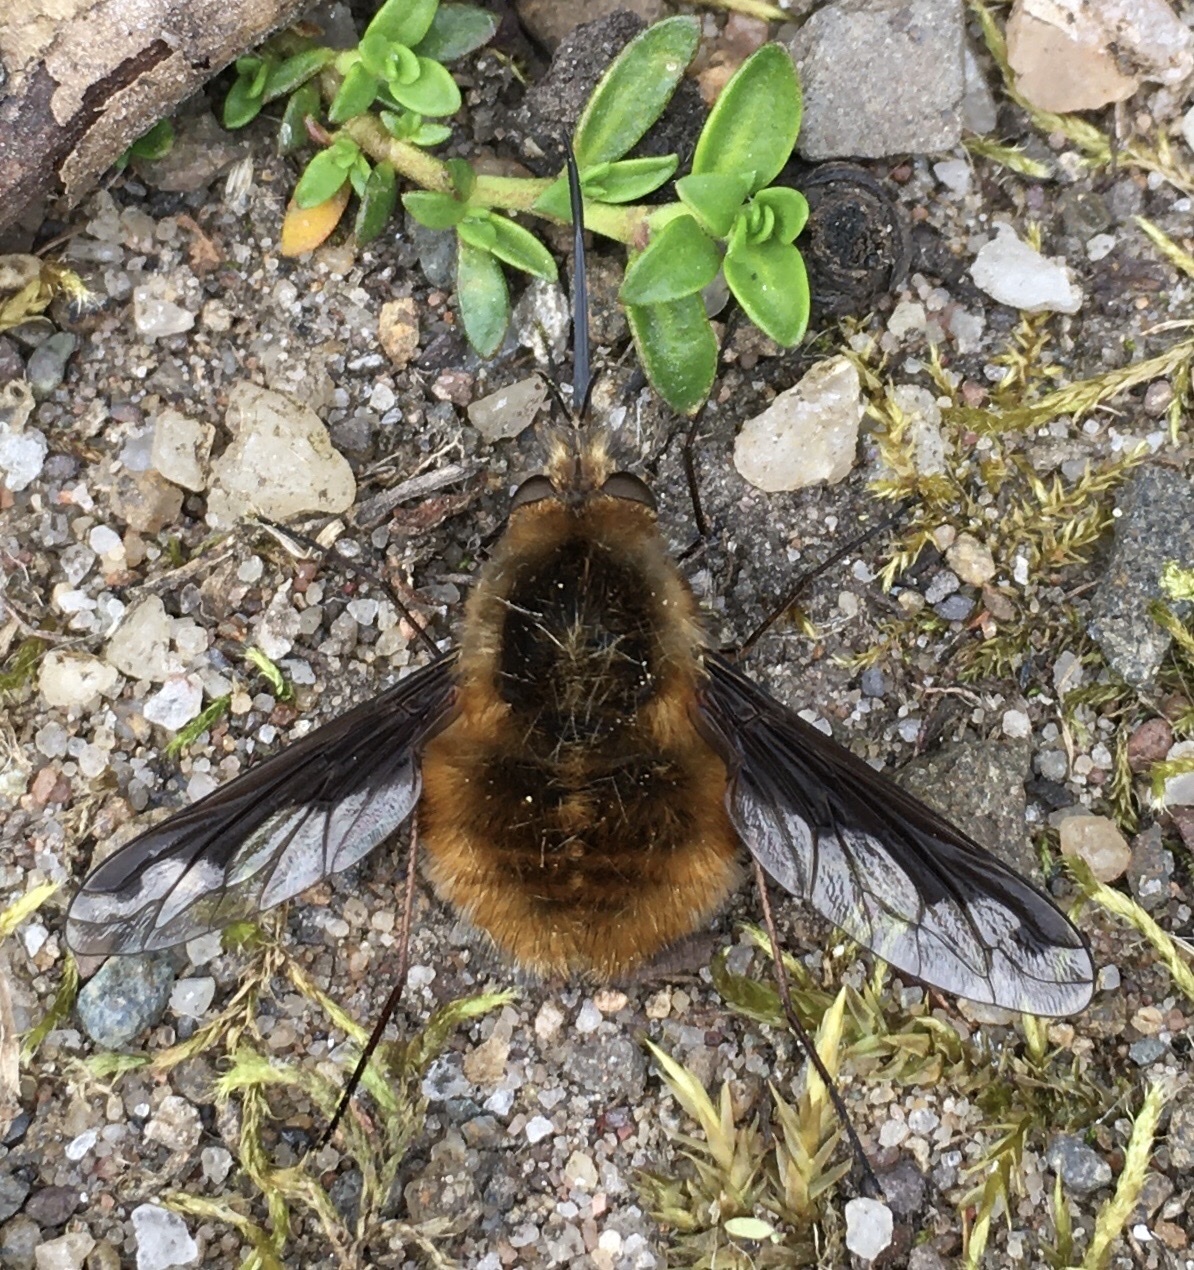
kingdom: Animalia
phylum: Arthropoda
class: Insecta
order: Diptera
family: Bombyliidae
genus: Bombylius
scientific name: Bombylius major
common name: Bee fly
